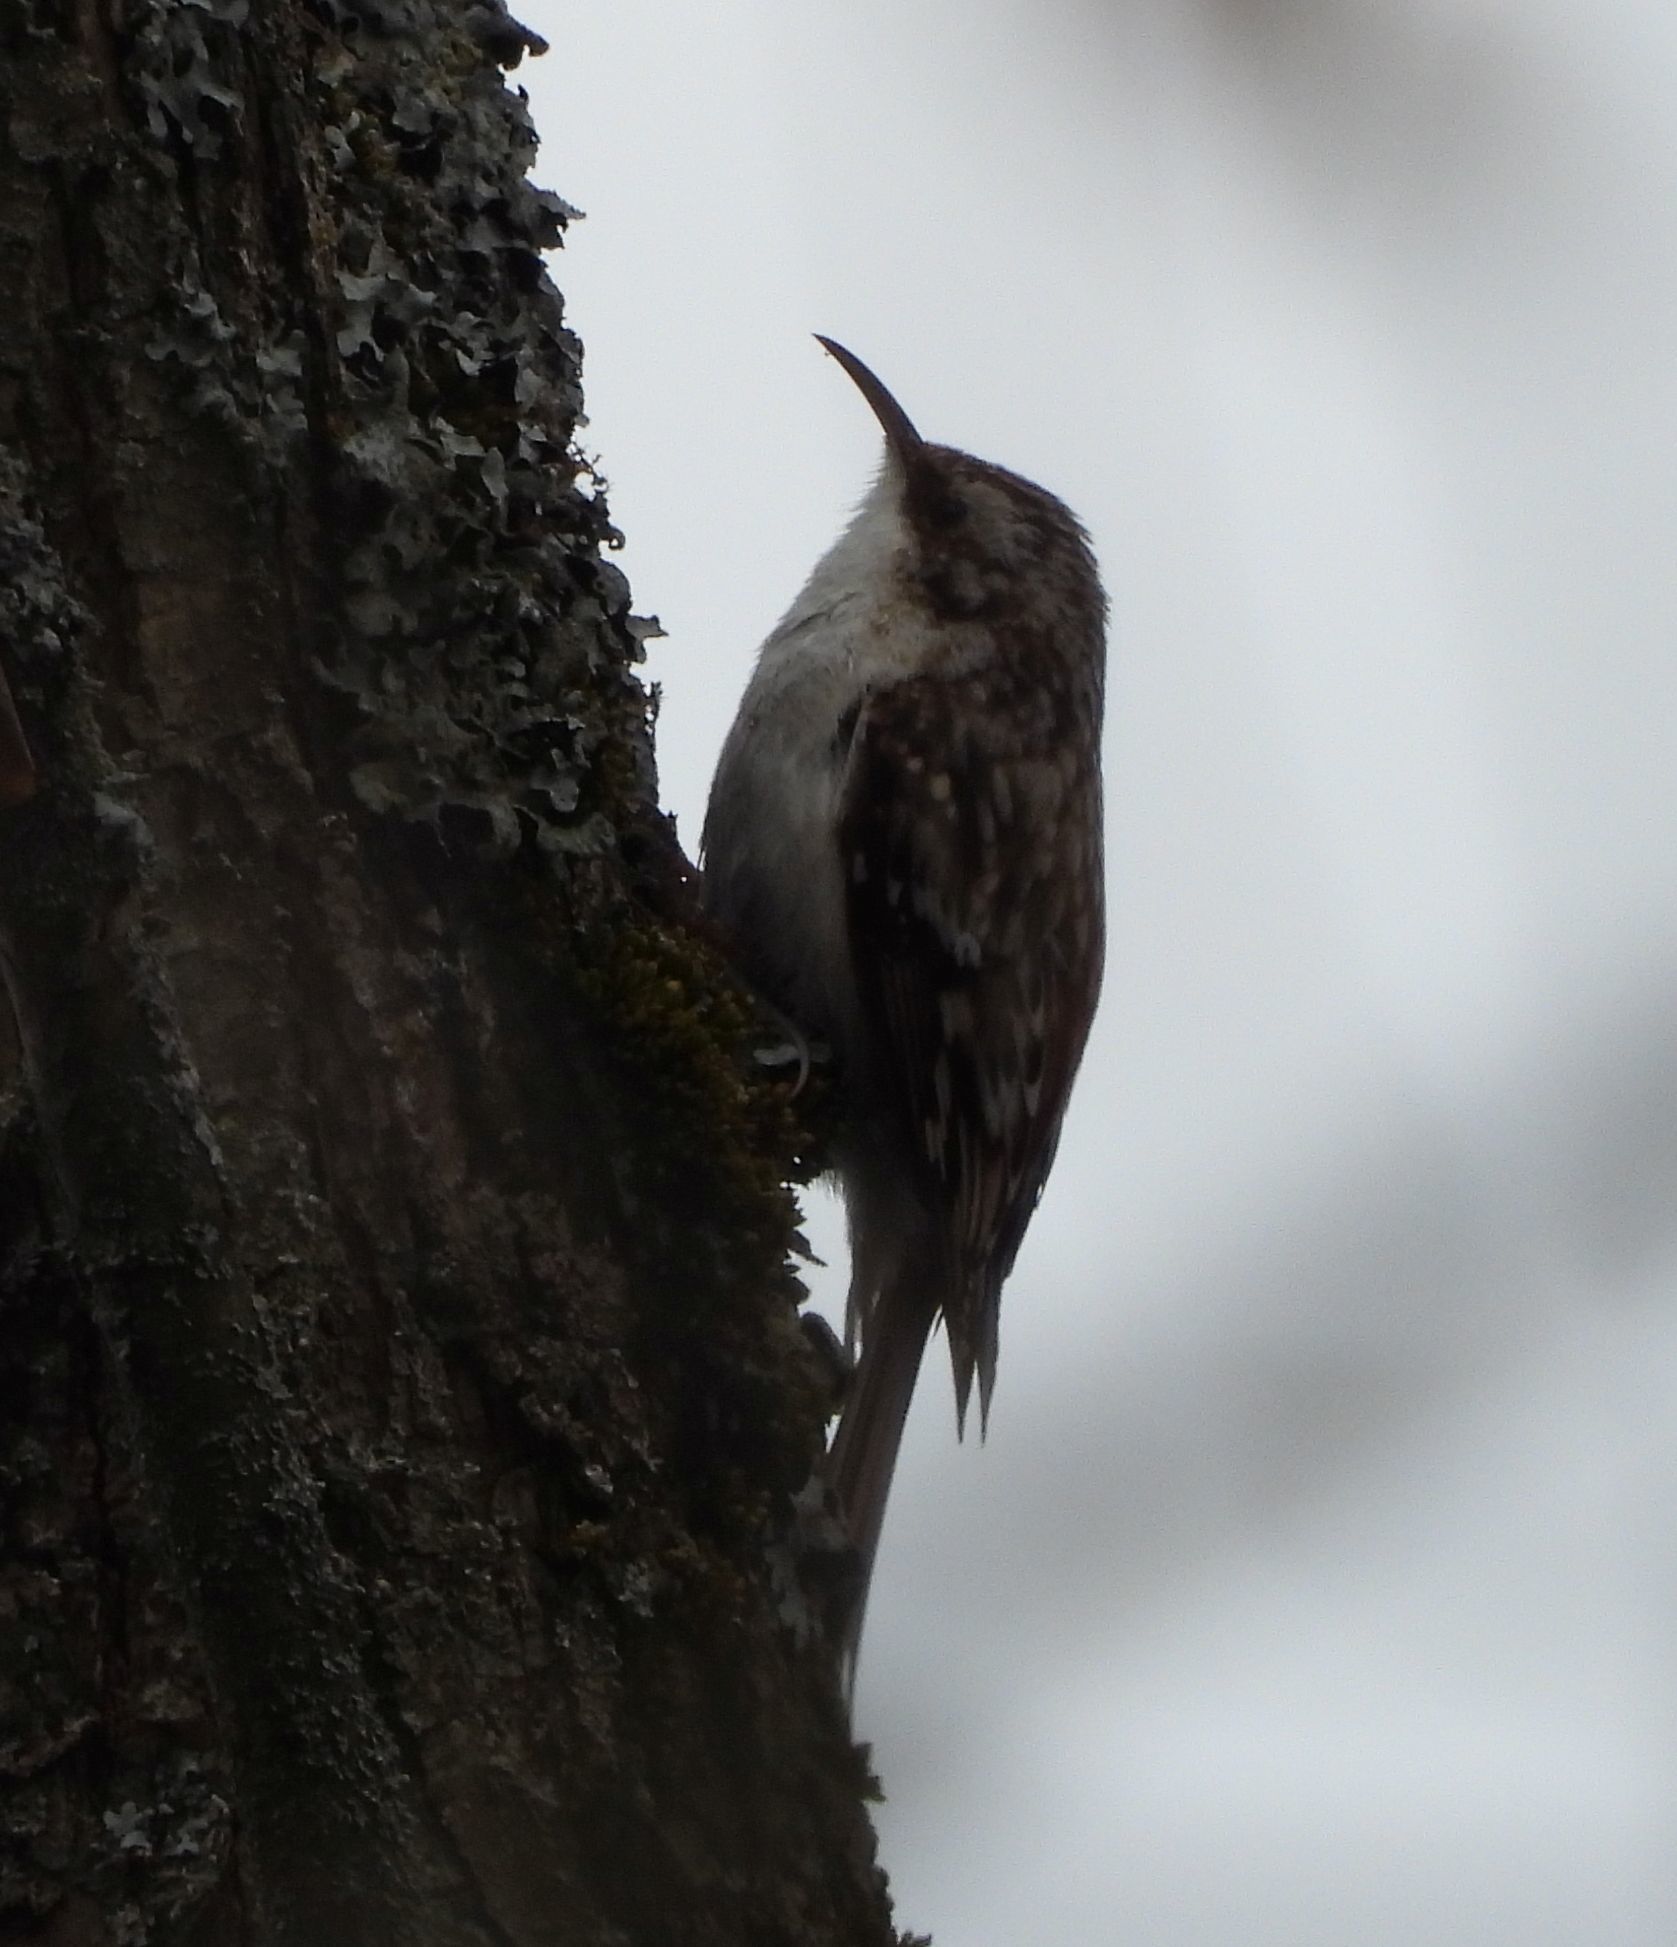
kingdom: Animalia
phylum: Chordata
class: Aves
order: Passeriformes
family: Certhiidae
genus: Certhia
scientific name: Certhia americana
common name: Brown creeper
